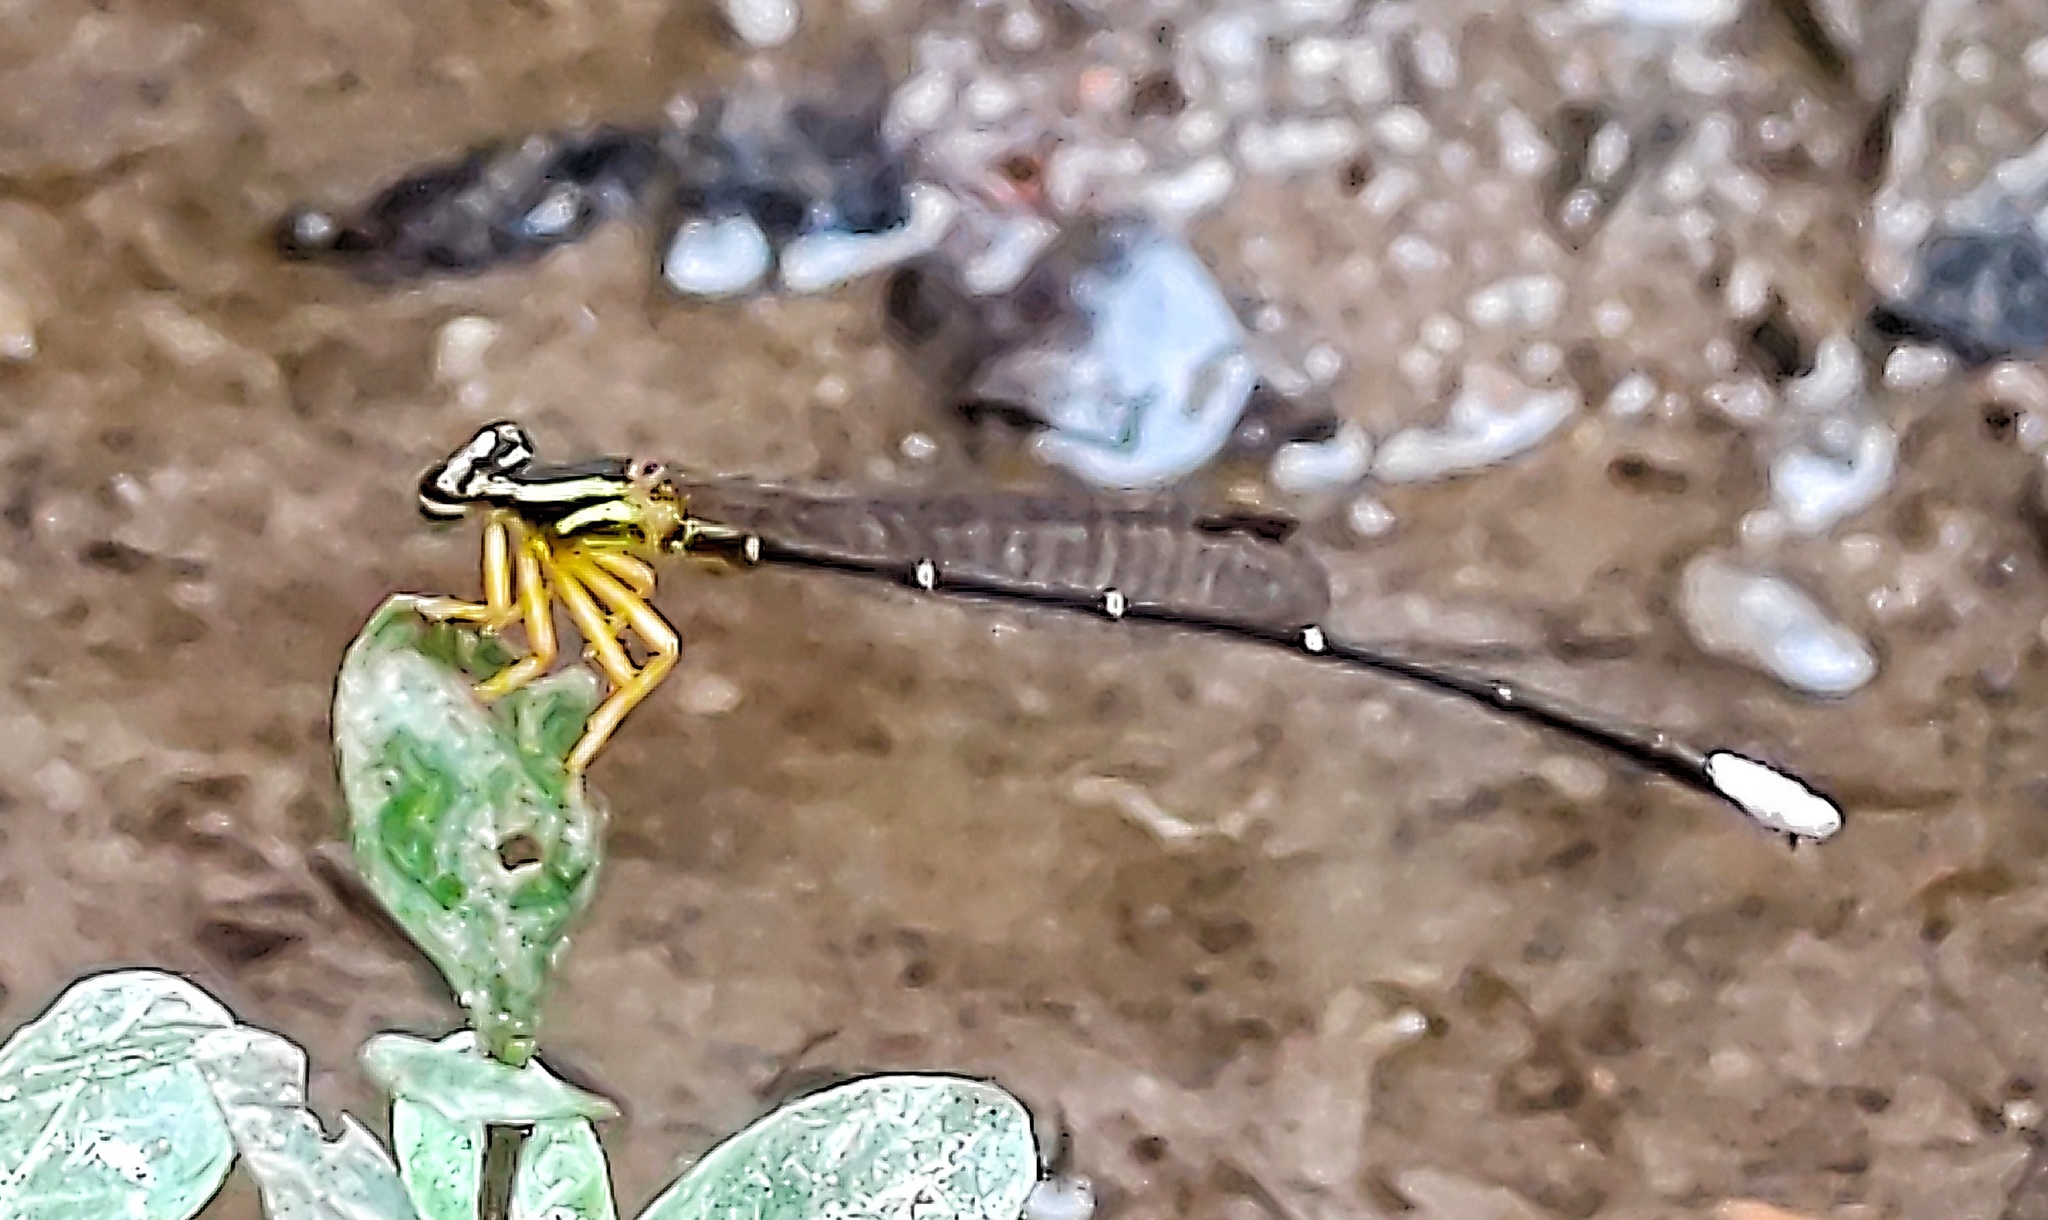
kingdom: Animalia
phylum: Arthropoda
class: Insecta
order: Odonata
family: Platycnemididae
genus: Copera
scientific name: Copera marginipes
